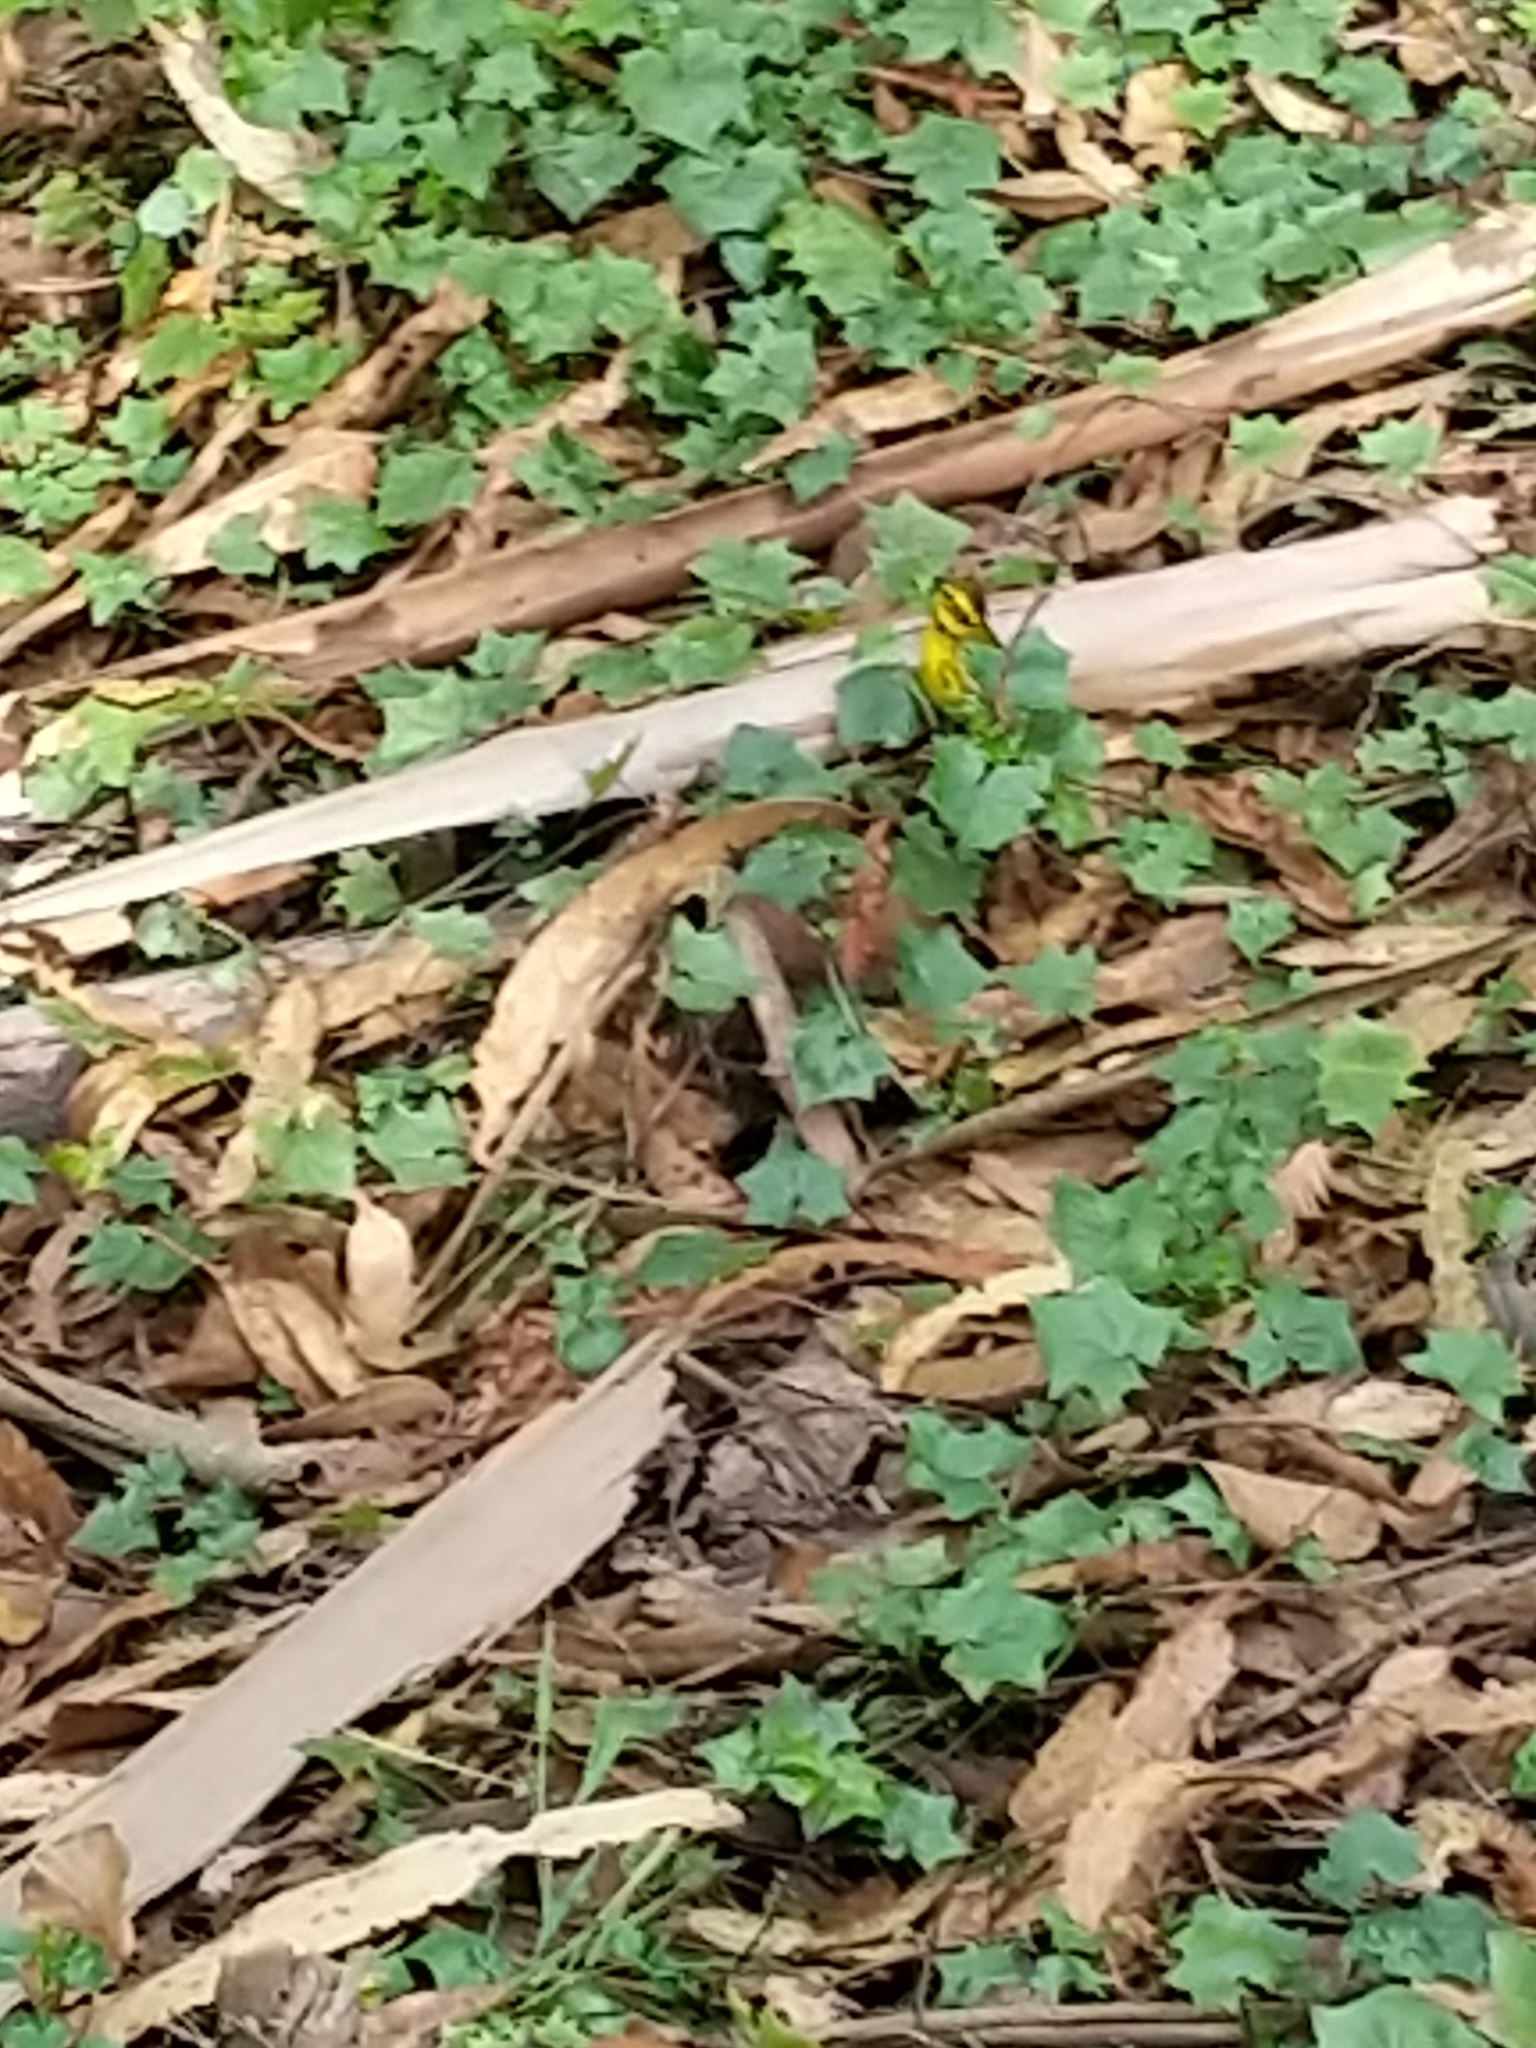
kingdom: Animalia
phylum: Chordata
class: Aves
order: Passeriformes
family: Parulidae
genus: Setophaga
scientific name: Setophaga townsendi
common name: Townsend's warbler
